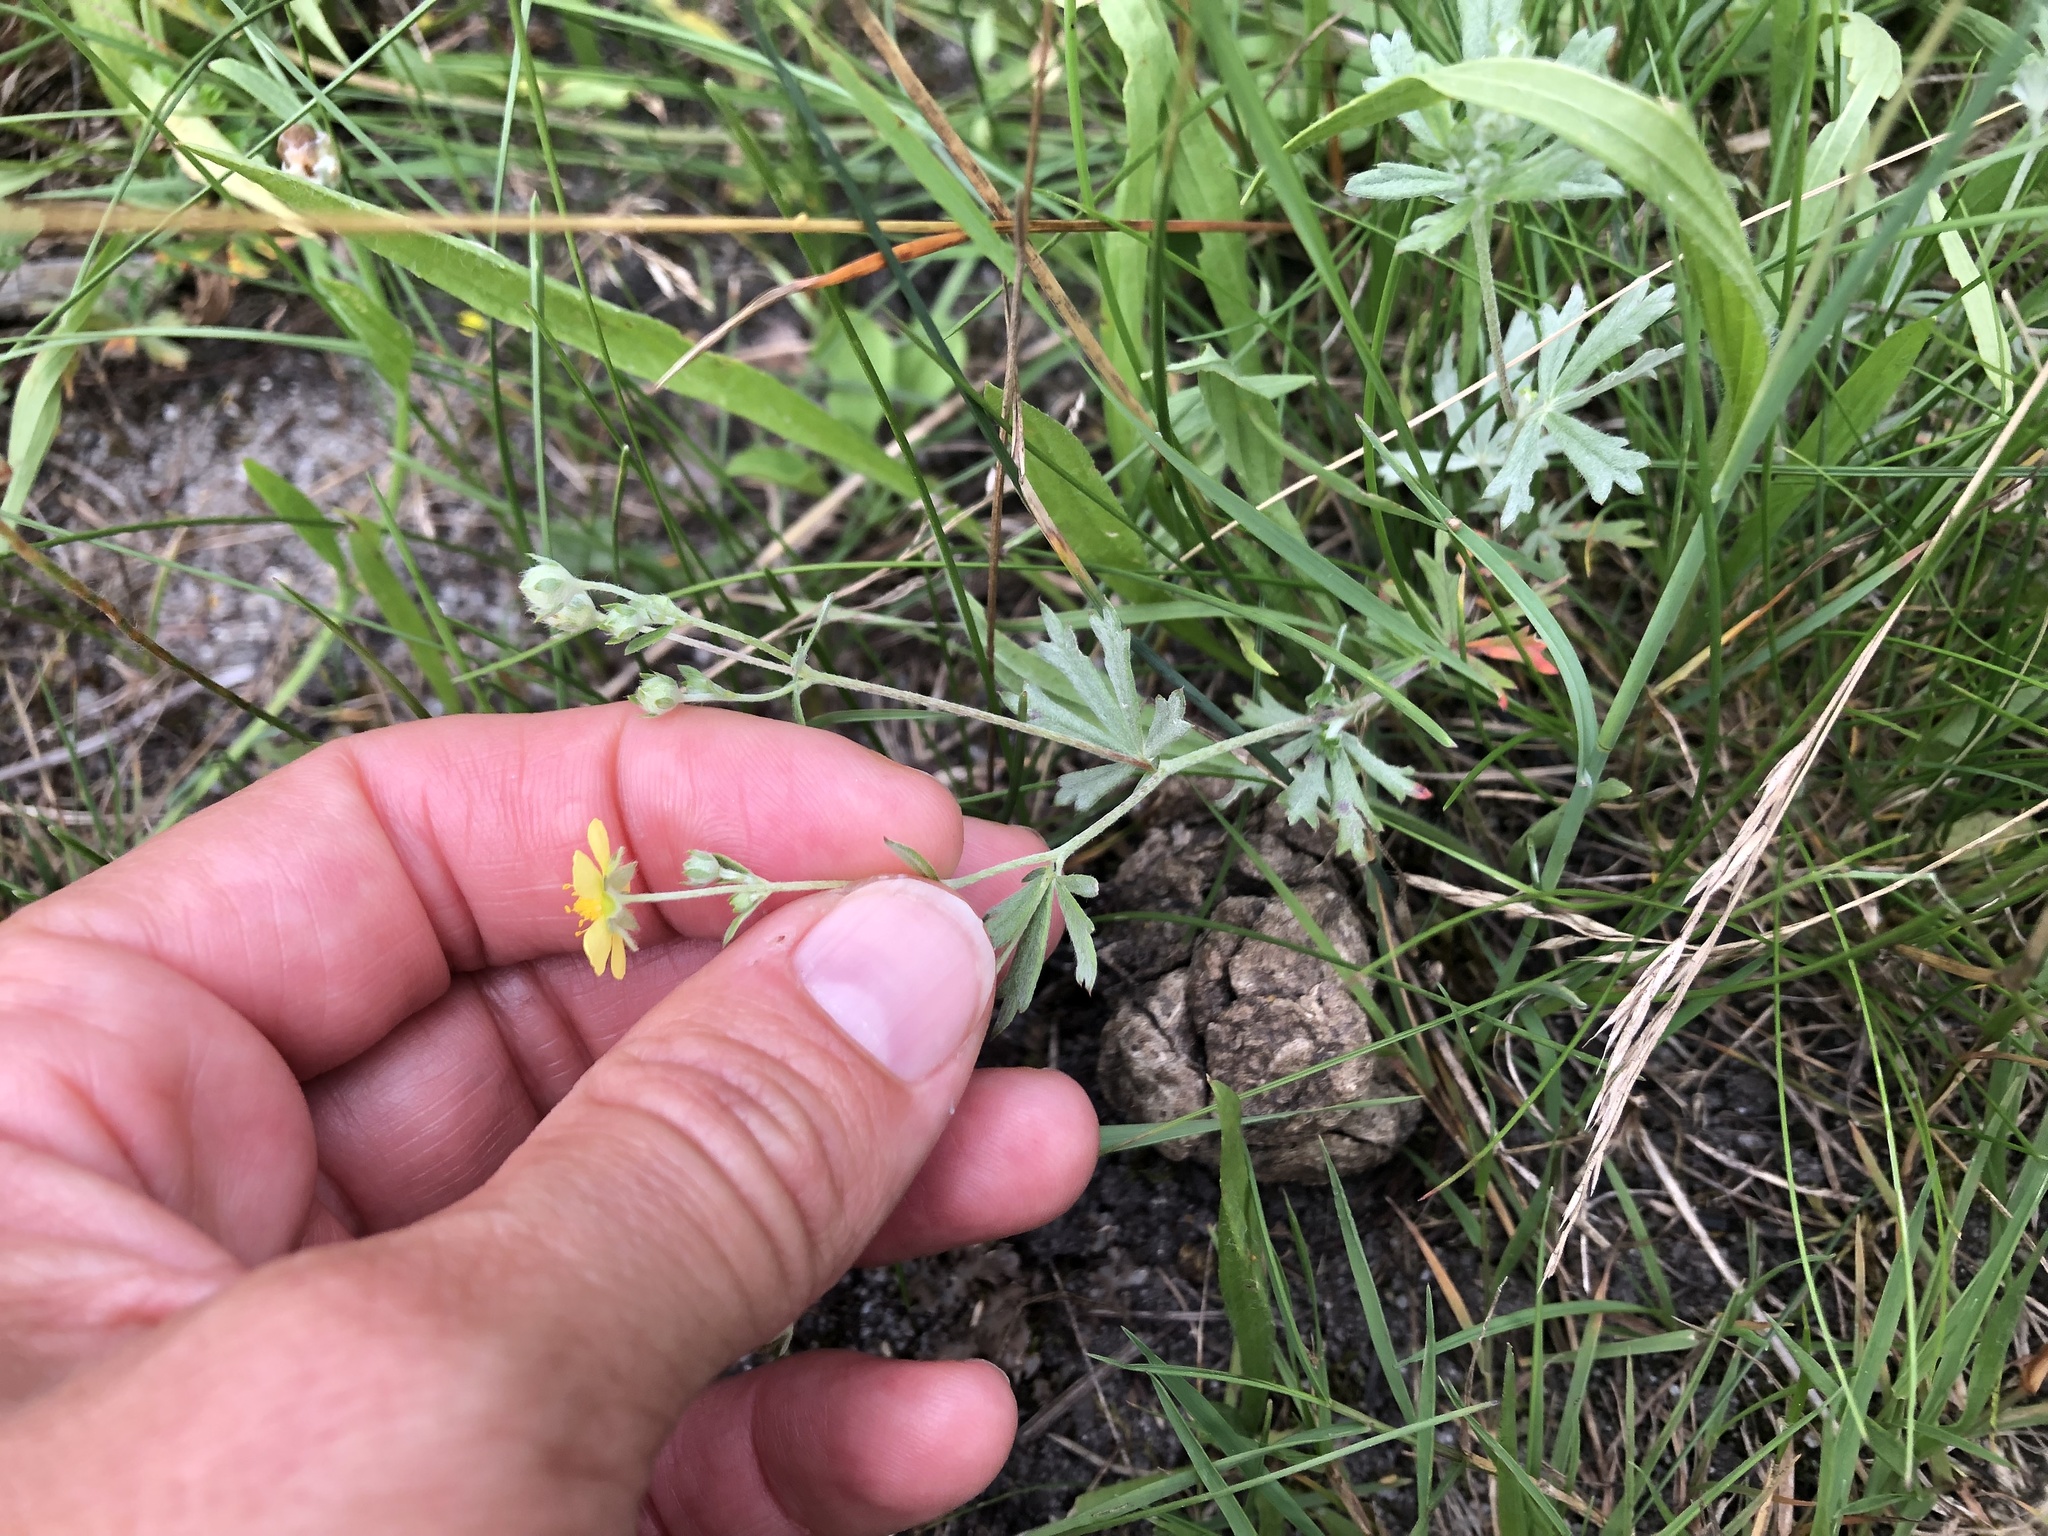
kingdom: Plantae
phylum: Tracheophyta
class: Magnoliopsida
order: Rosales
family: Rosaceae
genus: Potentilla
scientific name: Potentilla argentea
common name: Hoary cinquefoil
